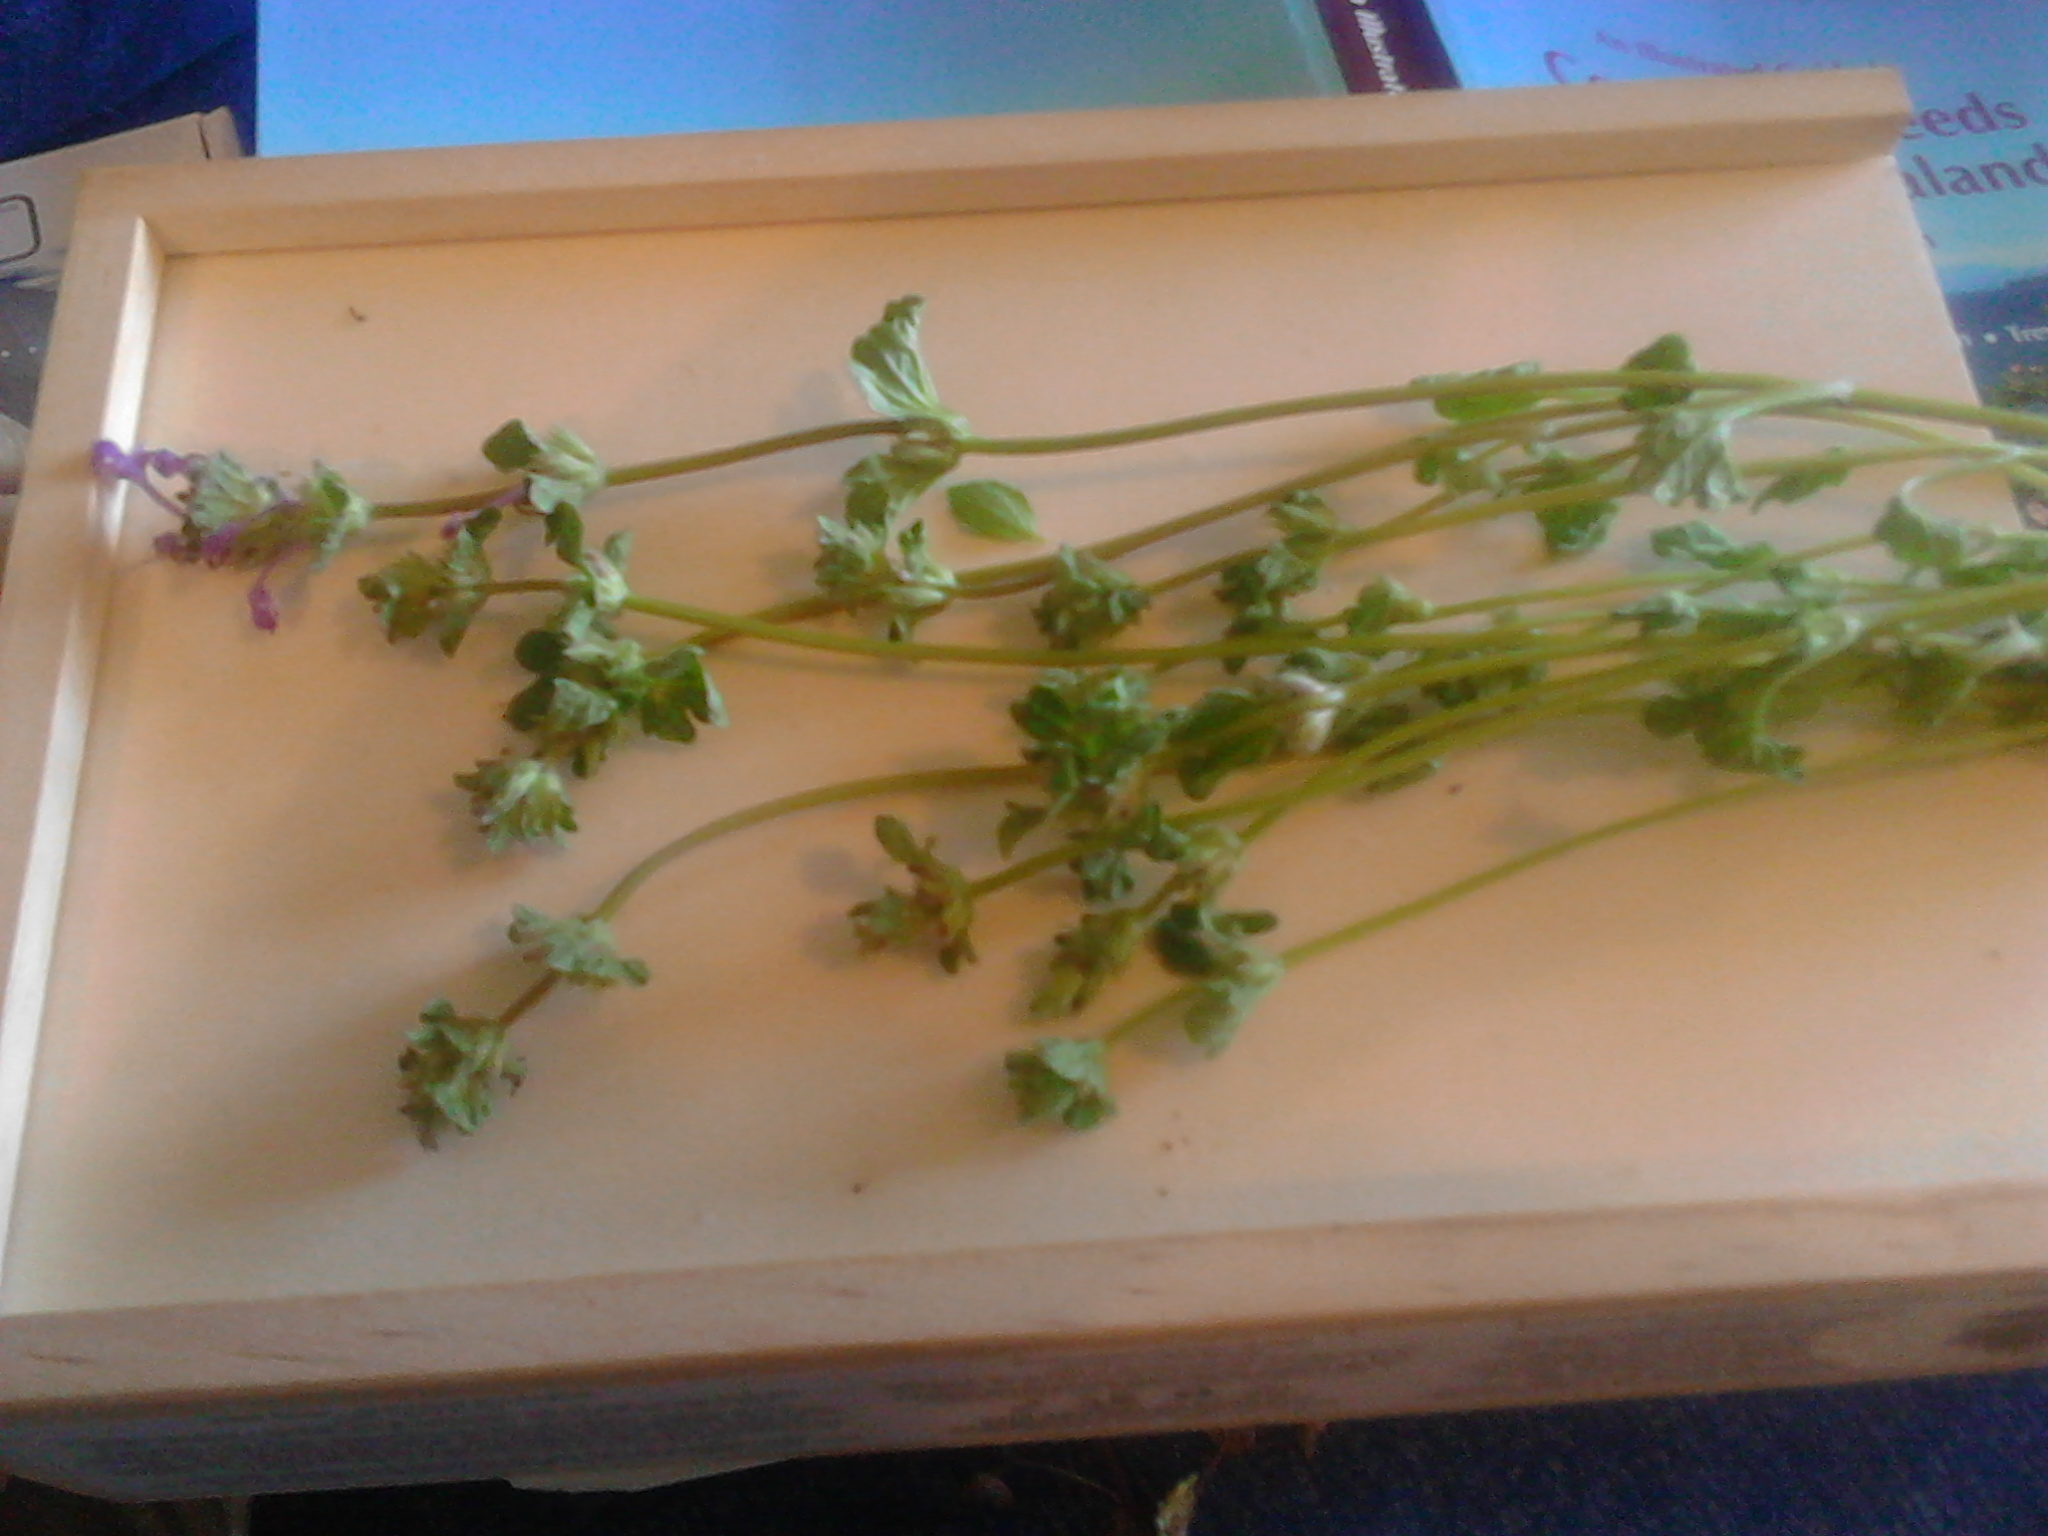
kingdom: Plantae
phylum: Tracheophyta
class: Magnoliopsida
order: Lamiales
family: Lamiaceae
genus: Lamium
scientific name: Lamium amplexicaule
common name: Henbit dead-nettle
